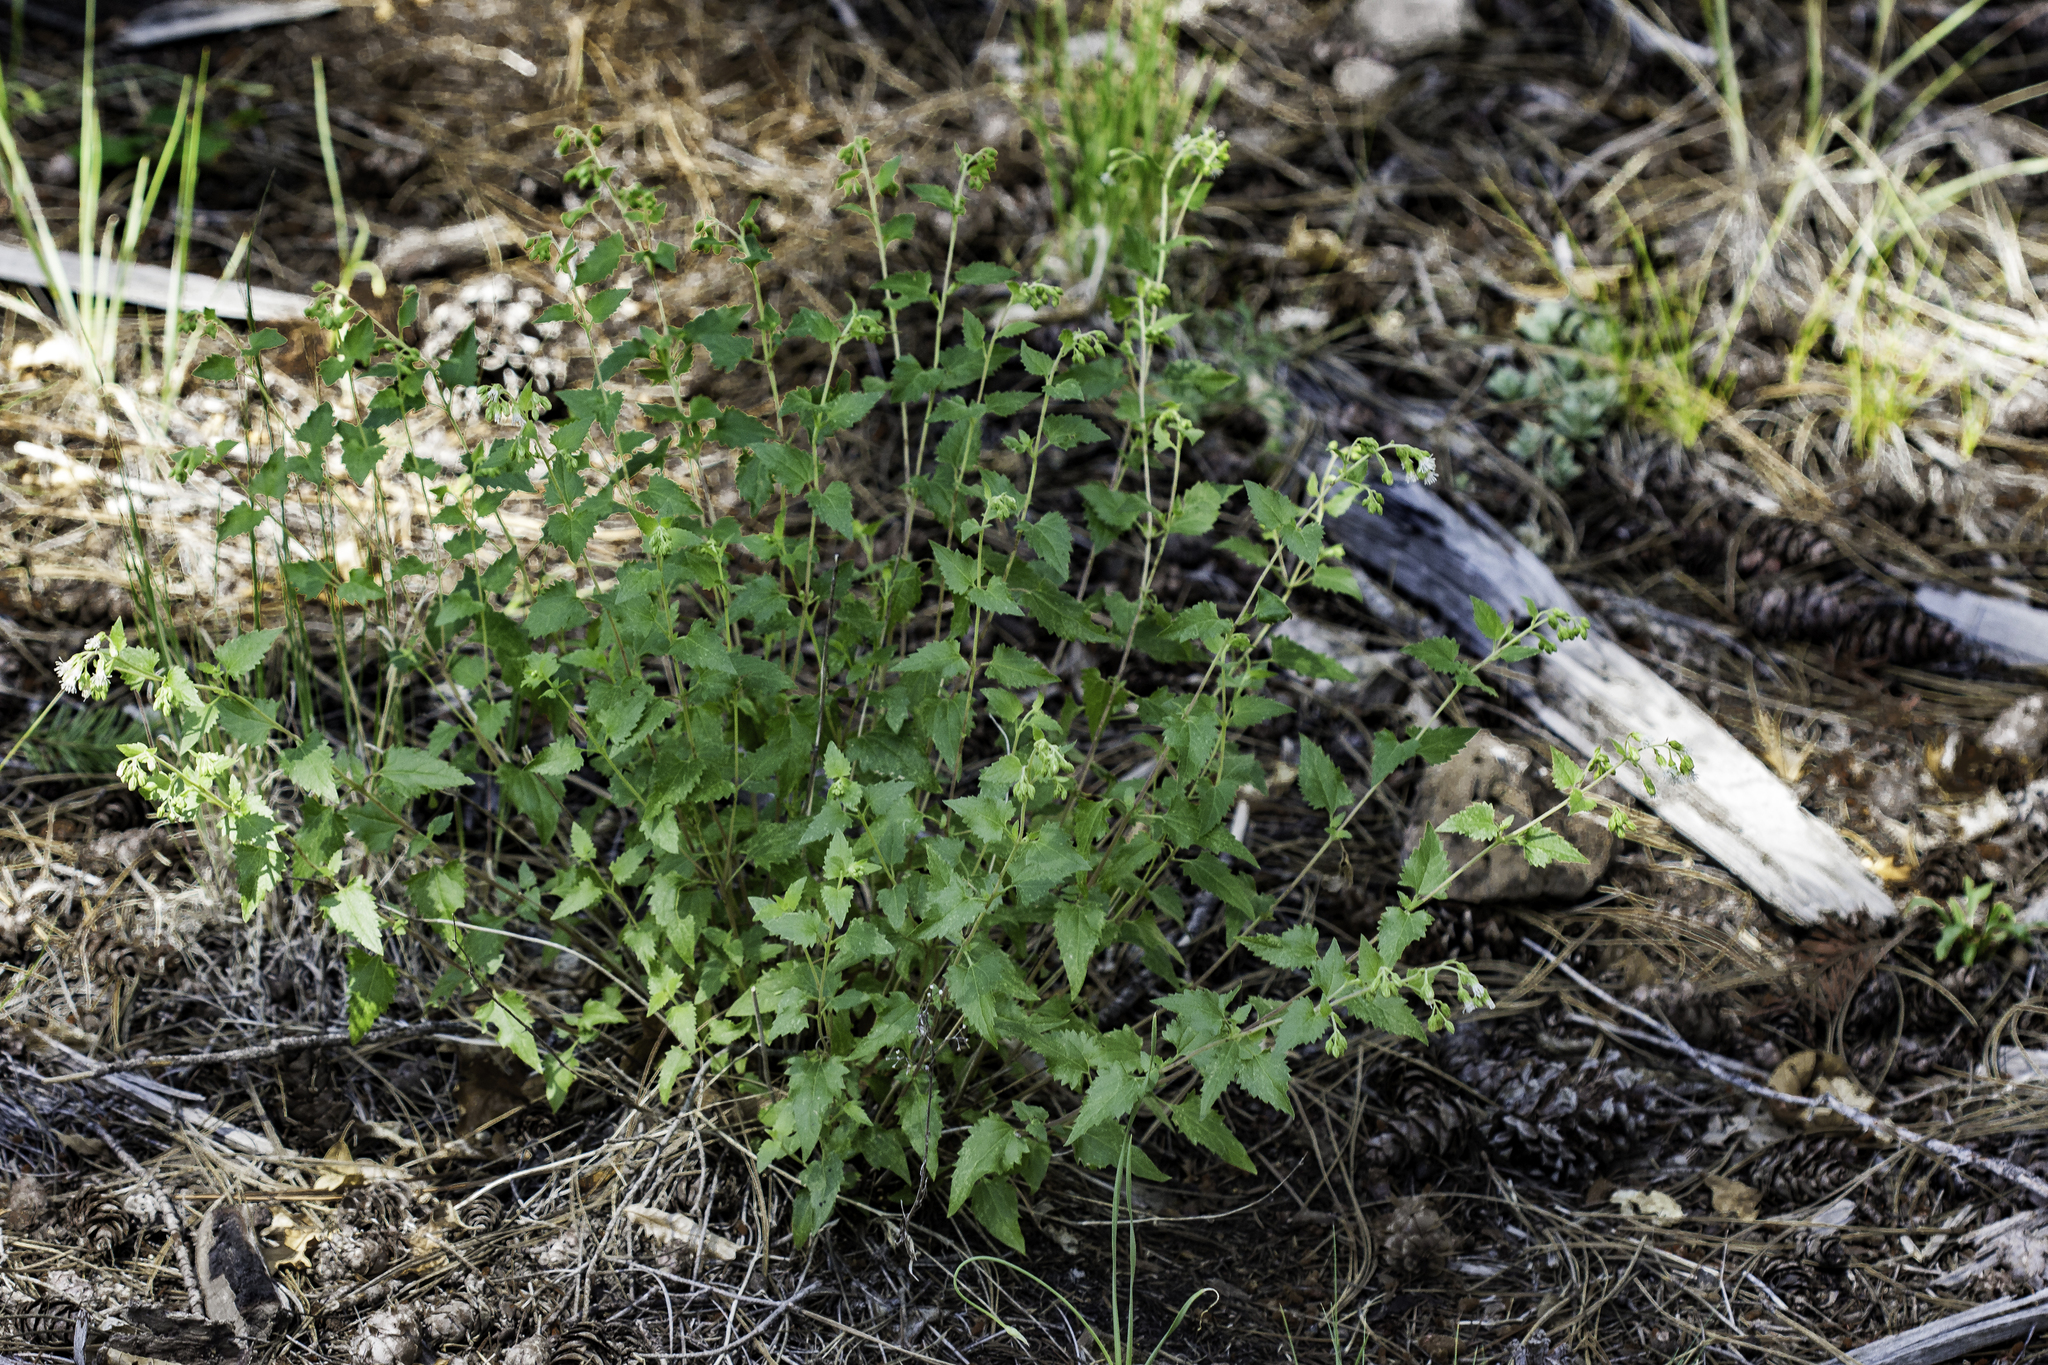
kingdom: Plantae
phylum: Tracheophyta
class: Magnoliopsida
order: Asterales
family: Asteraceae
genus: Brickelliastrum
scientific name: Brickelliastrum fendleri
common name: Fendler's-brickellbush
